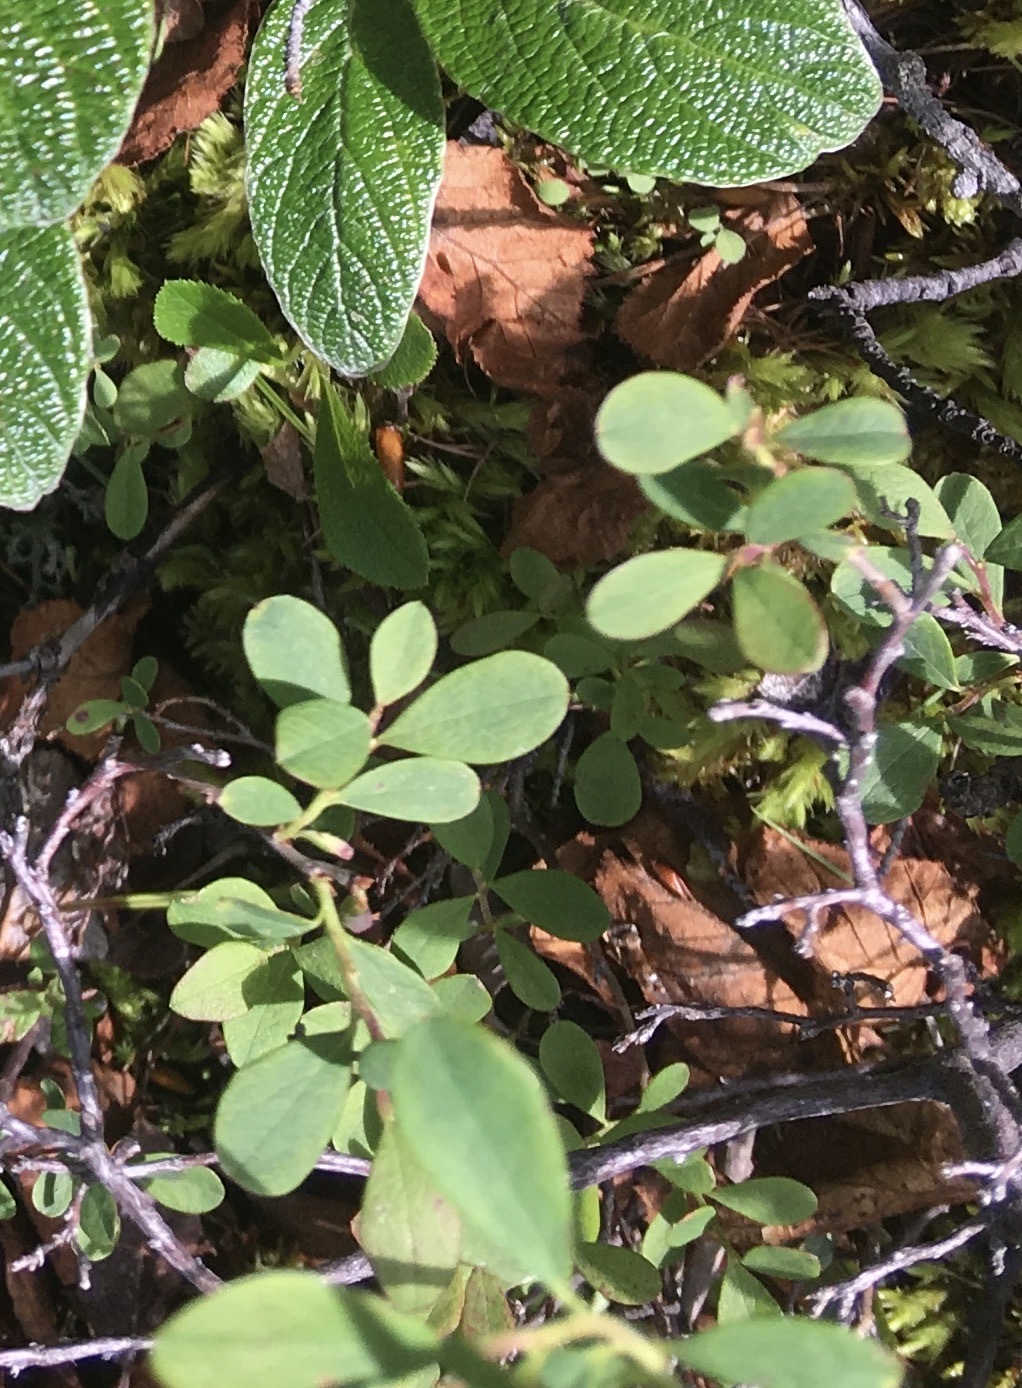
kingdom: Plantae
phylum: Tracheophyta
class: Magnoliopsida
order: Ericales
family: Ericaceae
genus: Vaccinium
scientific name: Vaccinium uliginosum
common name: Bog bilberry
